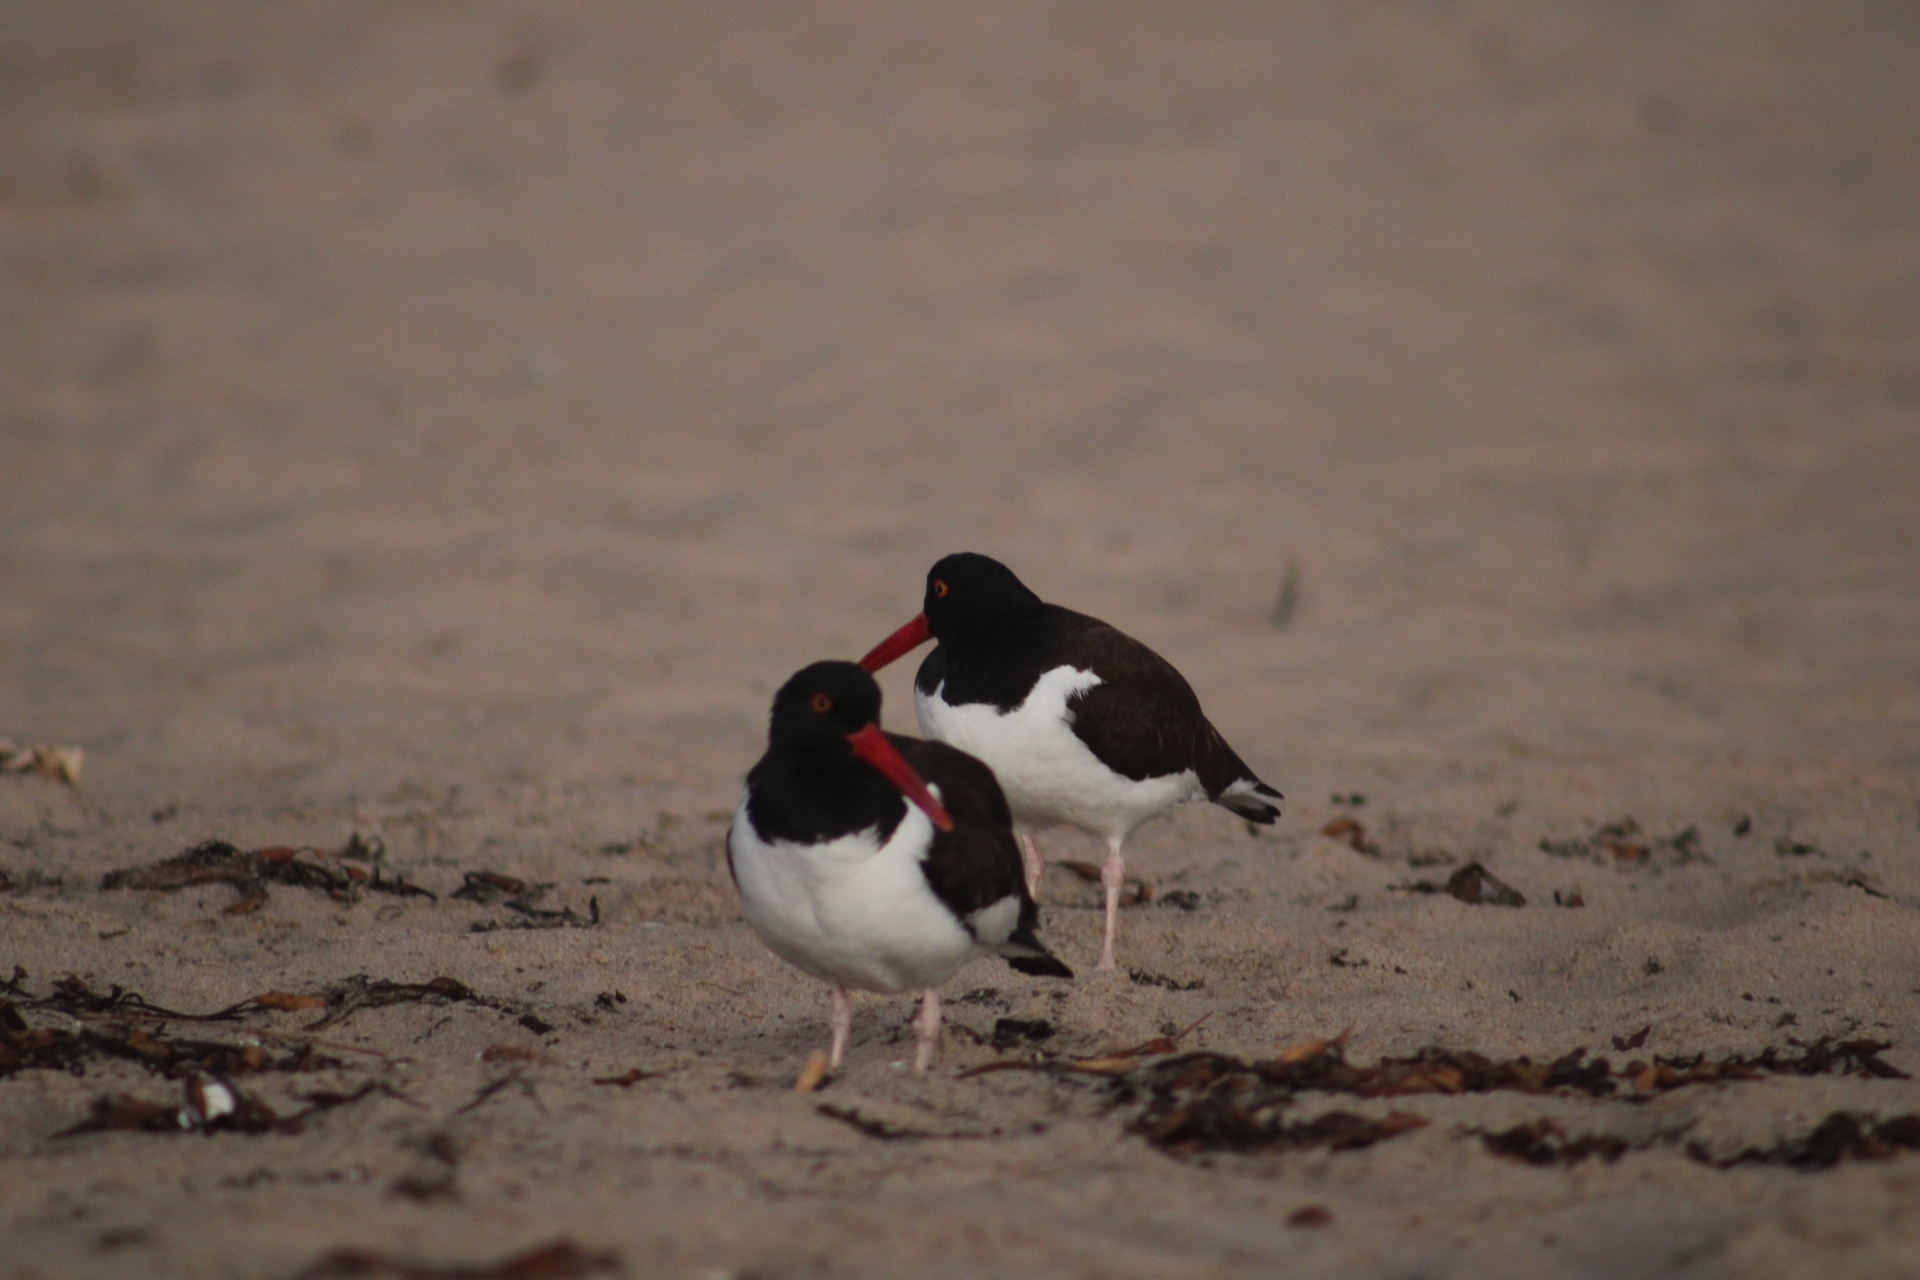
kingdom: Animalia
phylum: Chordata
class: Aves
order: Charadriiformes
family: Haematopodidae
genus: Haematopus
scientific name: Haematopus palliatus
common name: American oystercatcher
